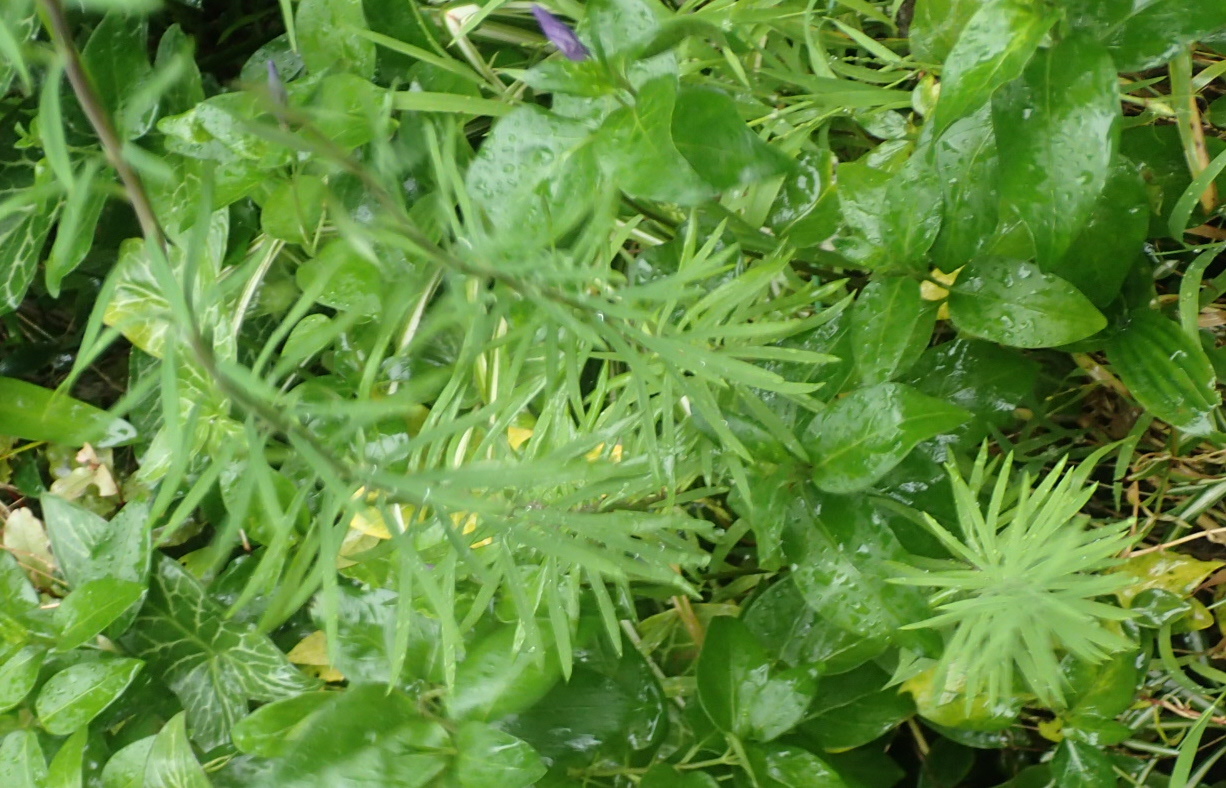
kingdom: Plantae
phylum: Tracheophyta
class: Magnoliopsida
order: Lamiales
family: Plantaginaceae
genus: Linaria
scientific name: Linaria purpurea
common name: Purple toadflax
